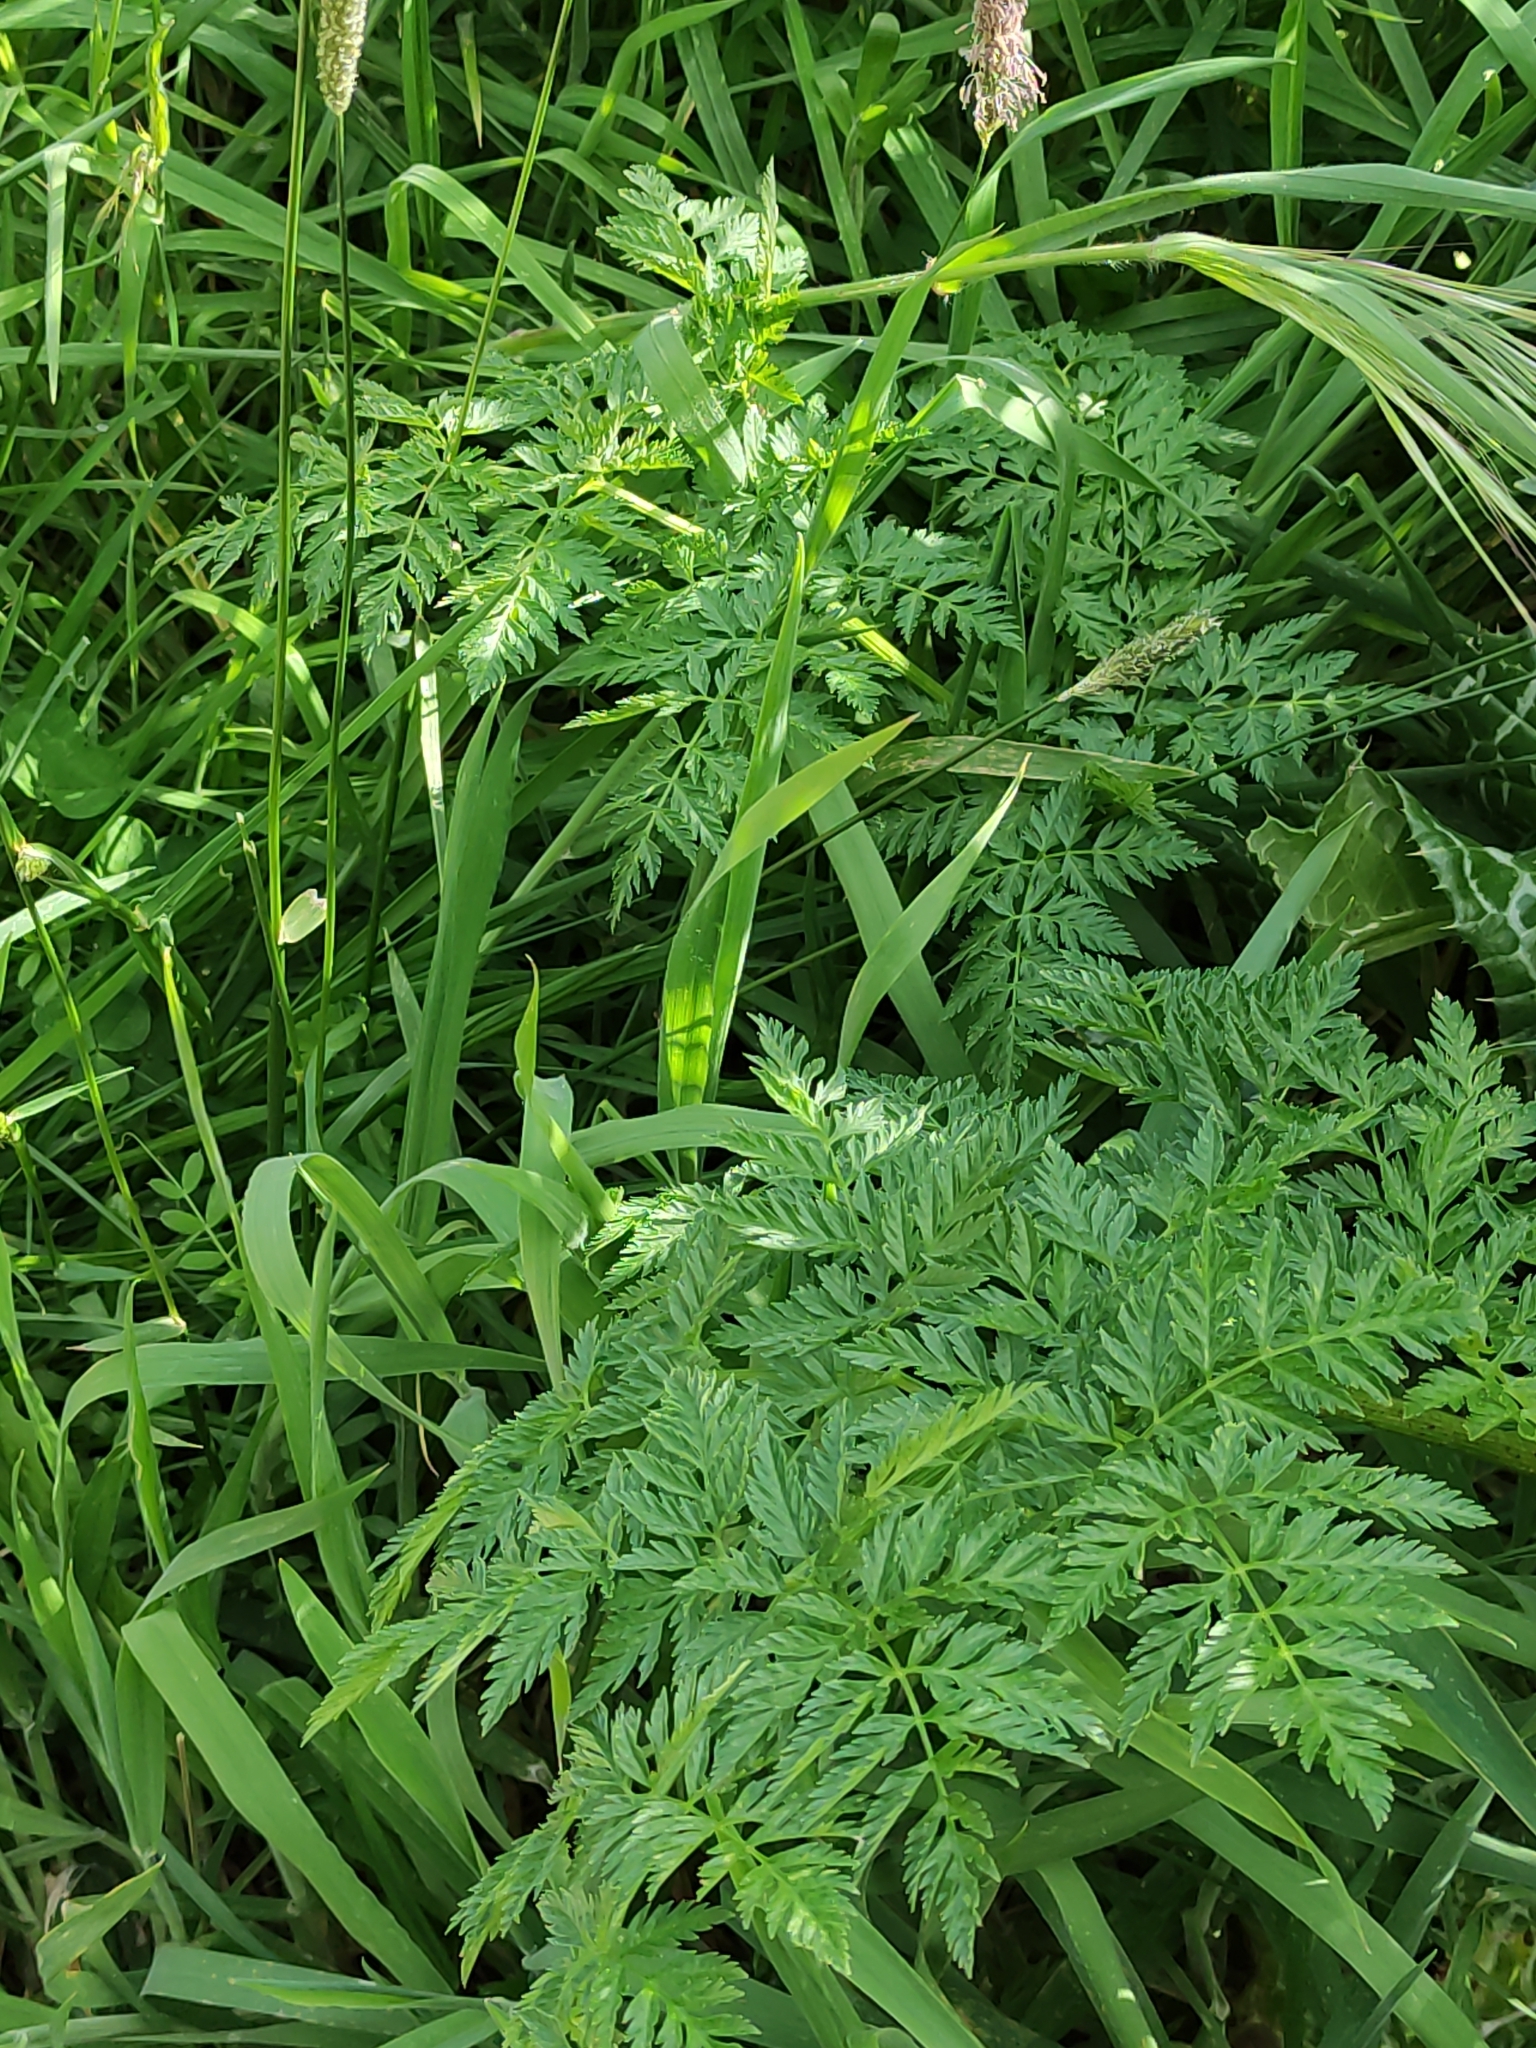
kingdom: Plantae
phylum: Tracheophyta
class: Magnoliopsida
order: Apiales
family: Apiaceae
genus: Conium
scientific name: Conium maculatum
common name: Hemlock
